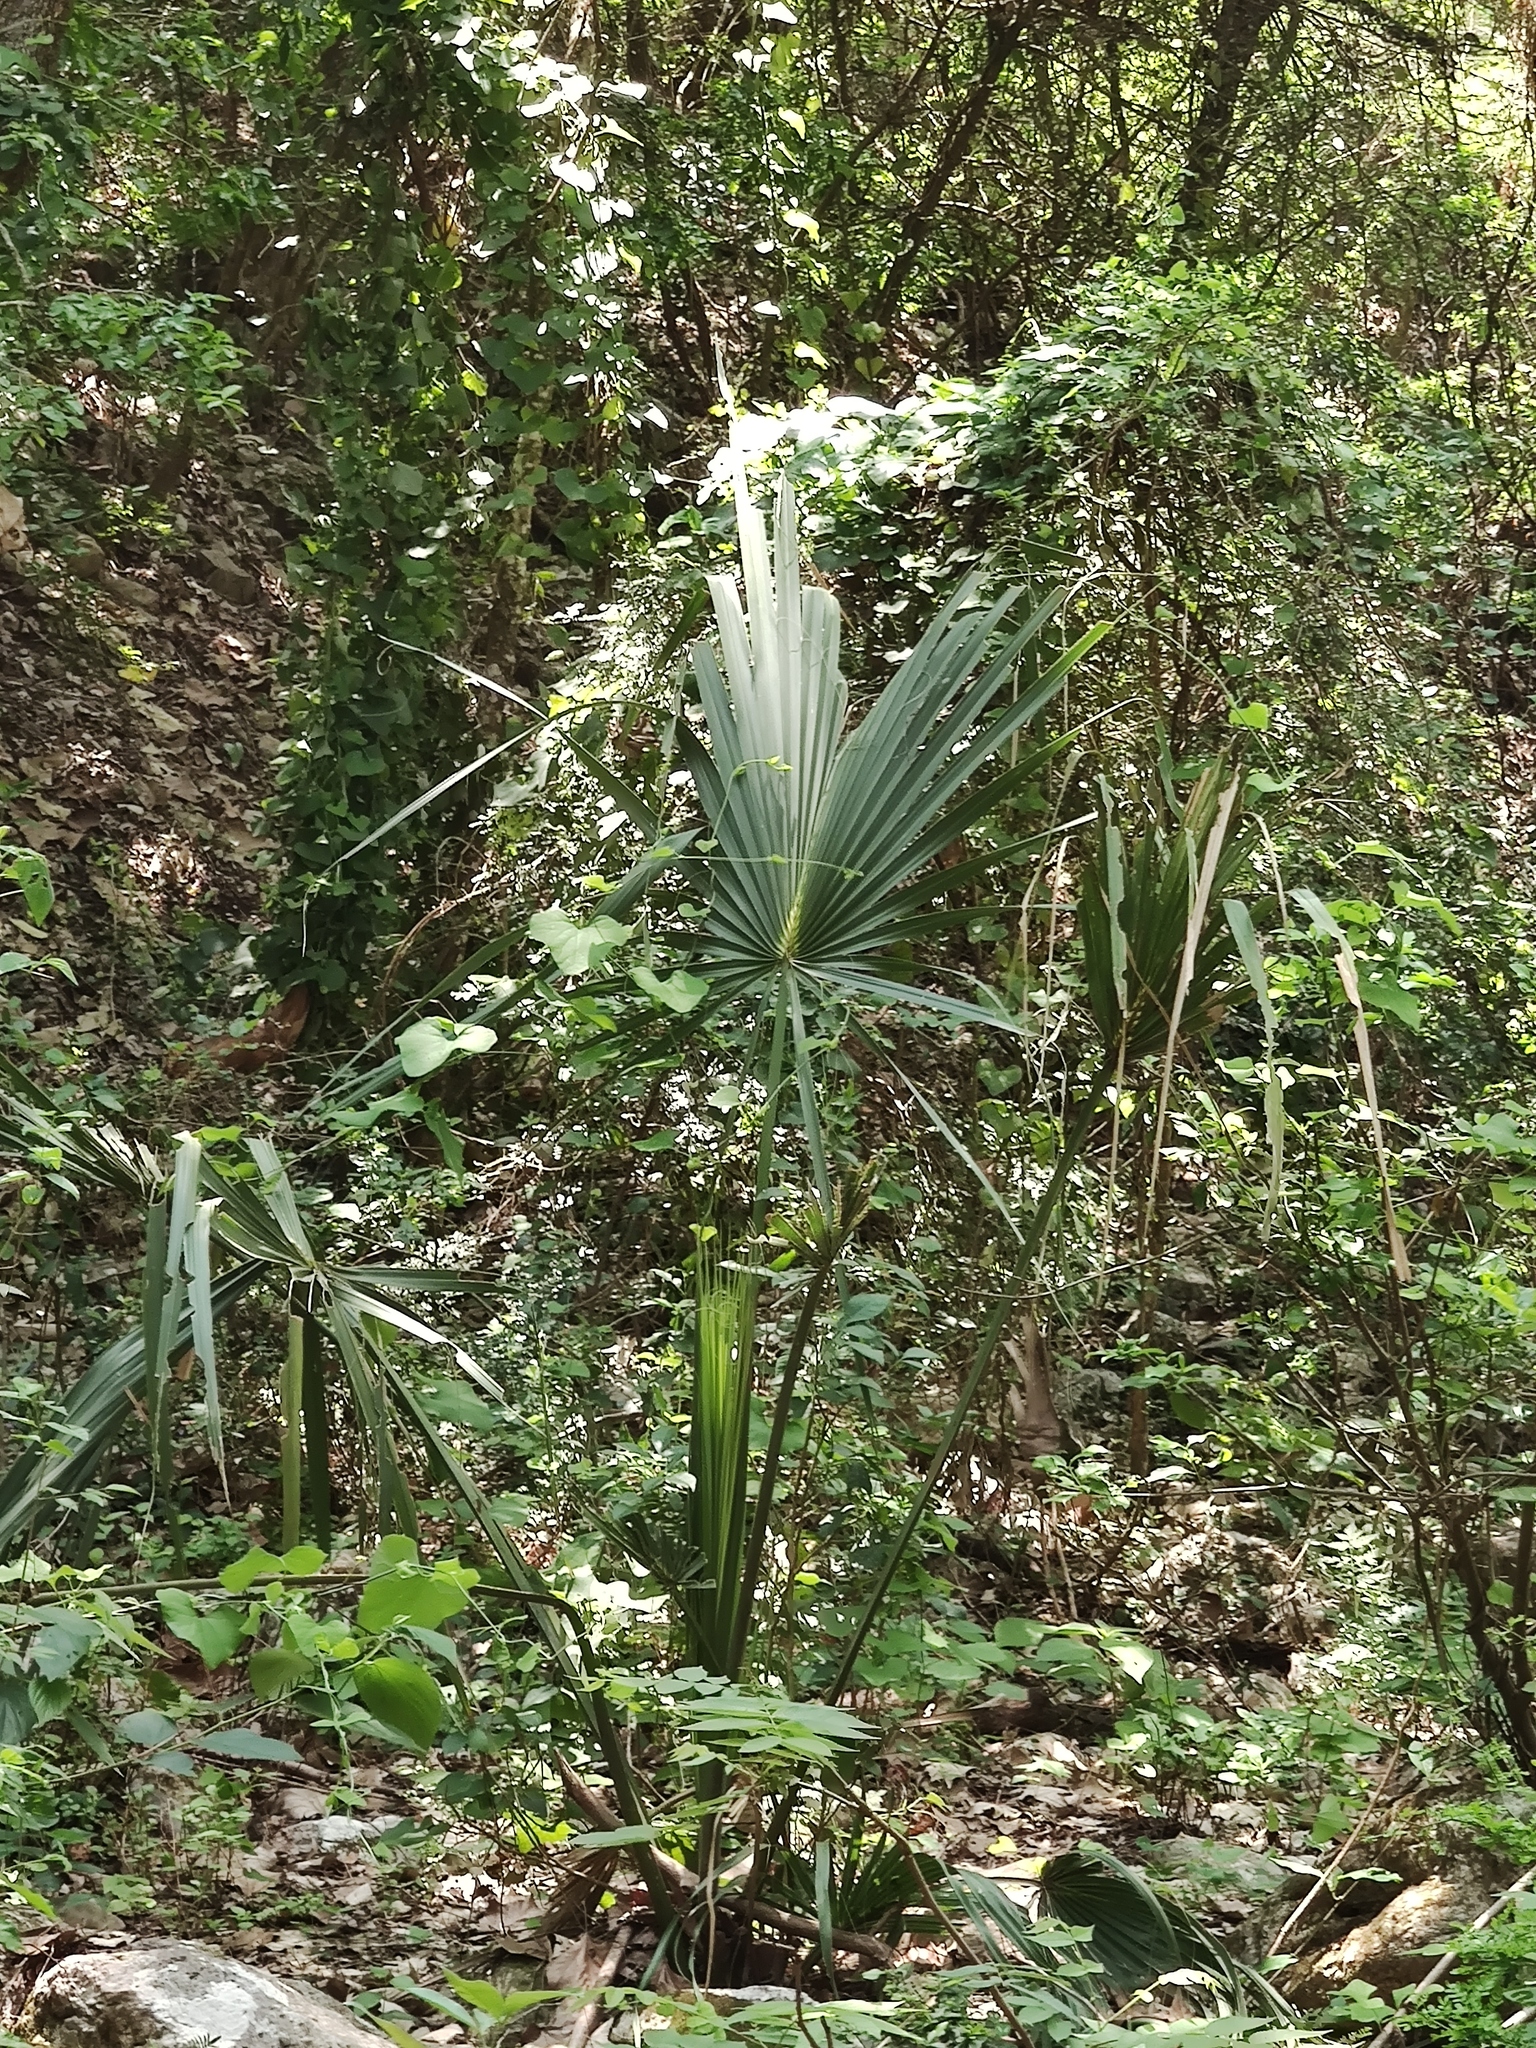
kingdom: Plantae
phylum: Tracheophyta
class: Liliopsida
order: Arecales
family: Arecaceae
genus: Sabal
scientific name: Sabal mexicana
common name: Texas palmetto
